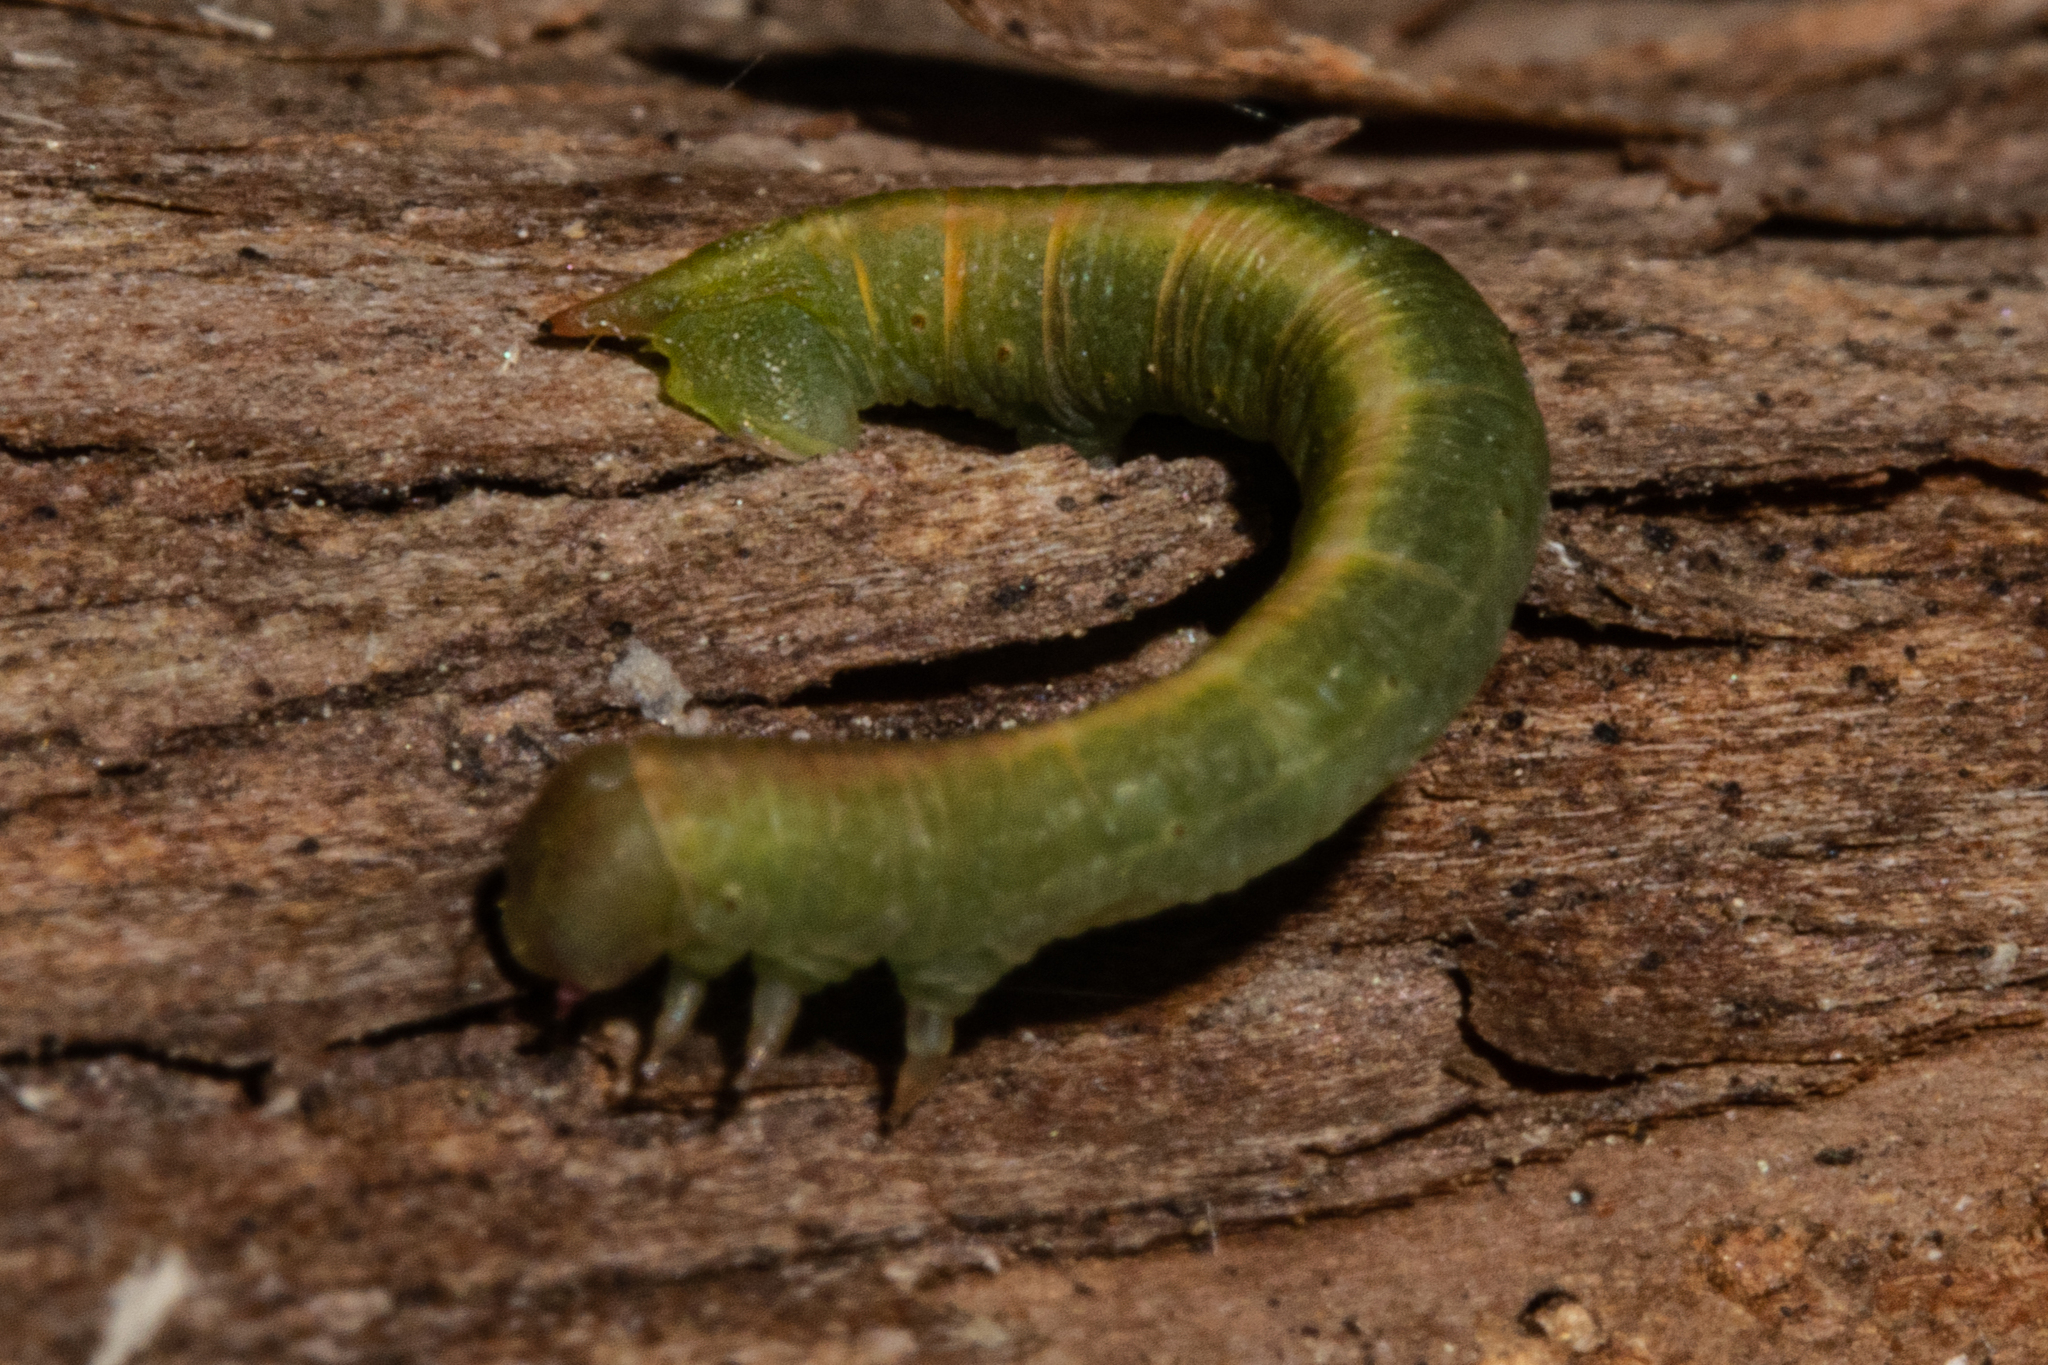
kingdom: Animalia
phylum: Arthropoda
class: Insecta
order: Lepidoptera
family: Geometridae
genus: Xyridacma
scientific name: Xyridacma alectoraria
